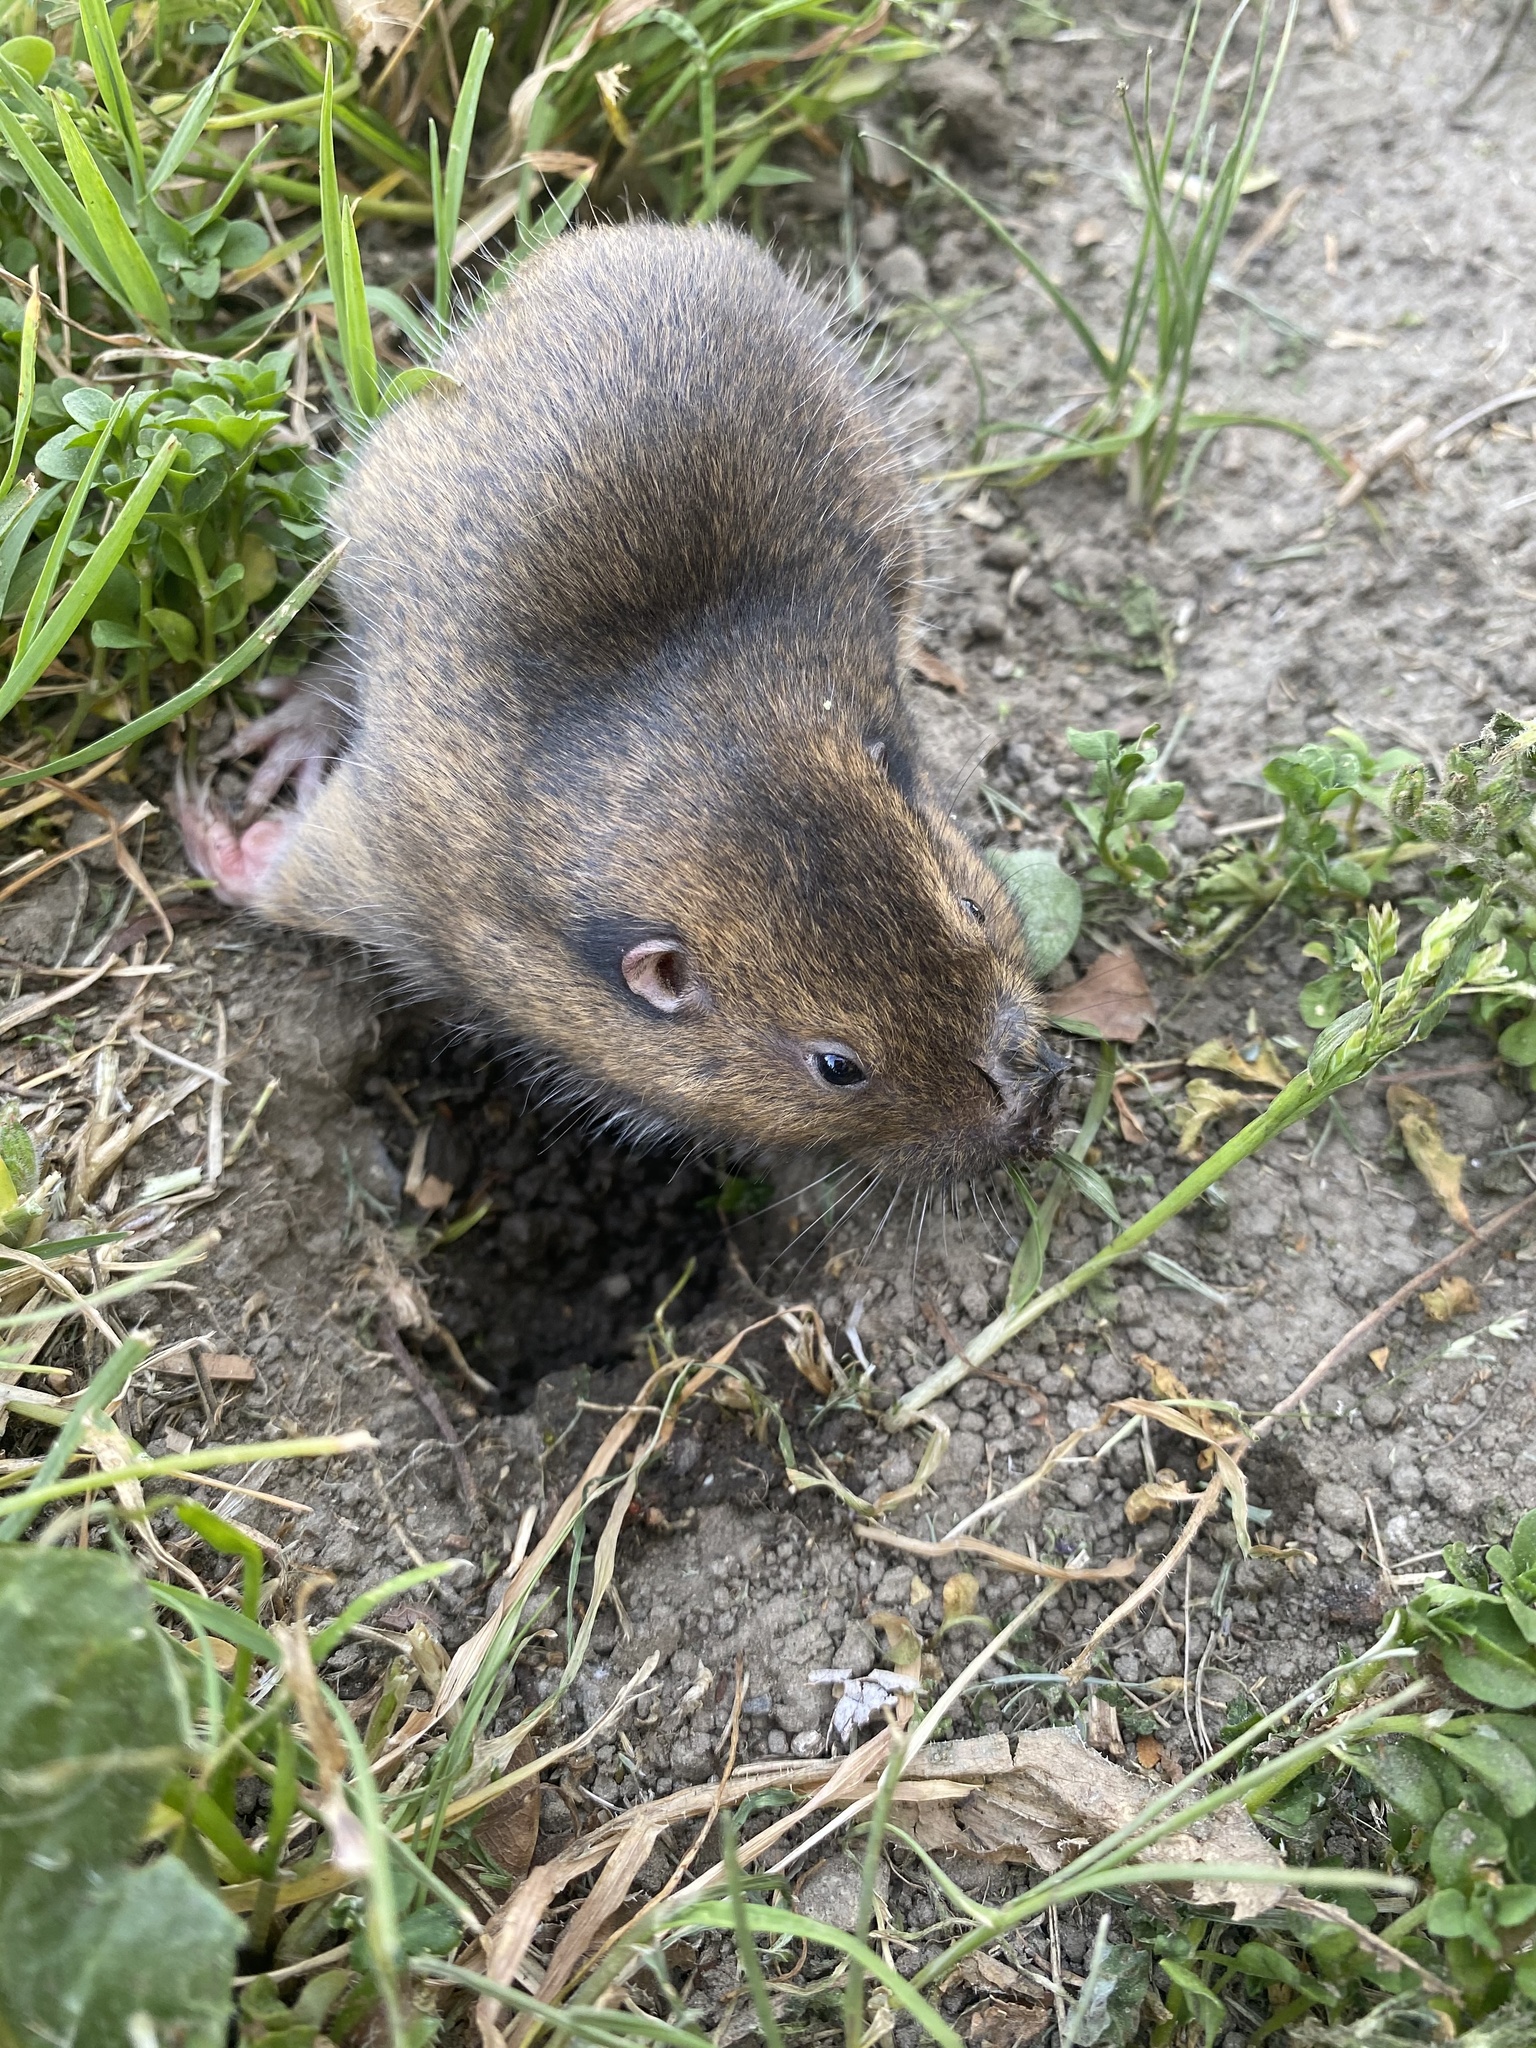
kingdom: Animalia
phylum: Chordata
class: Mammalia
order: Rodentia
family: Geomyidae
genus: Thomomys
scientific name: Thomomys bottae
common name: Botta's pocket gopher
